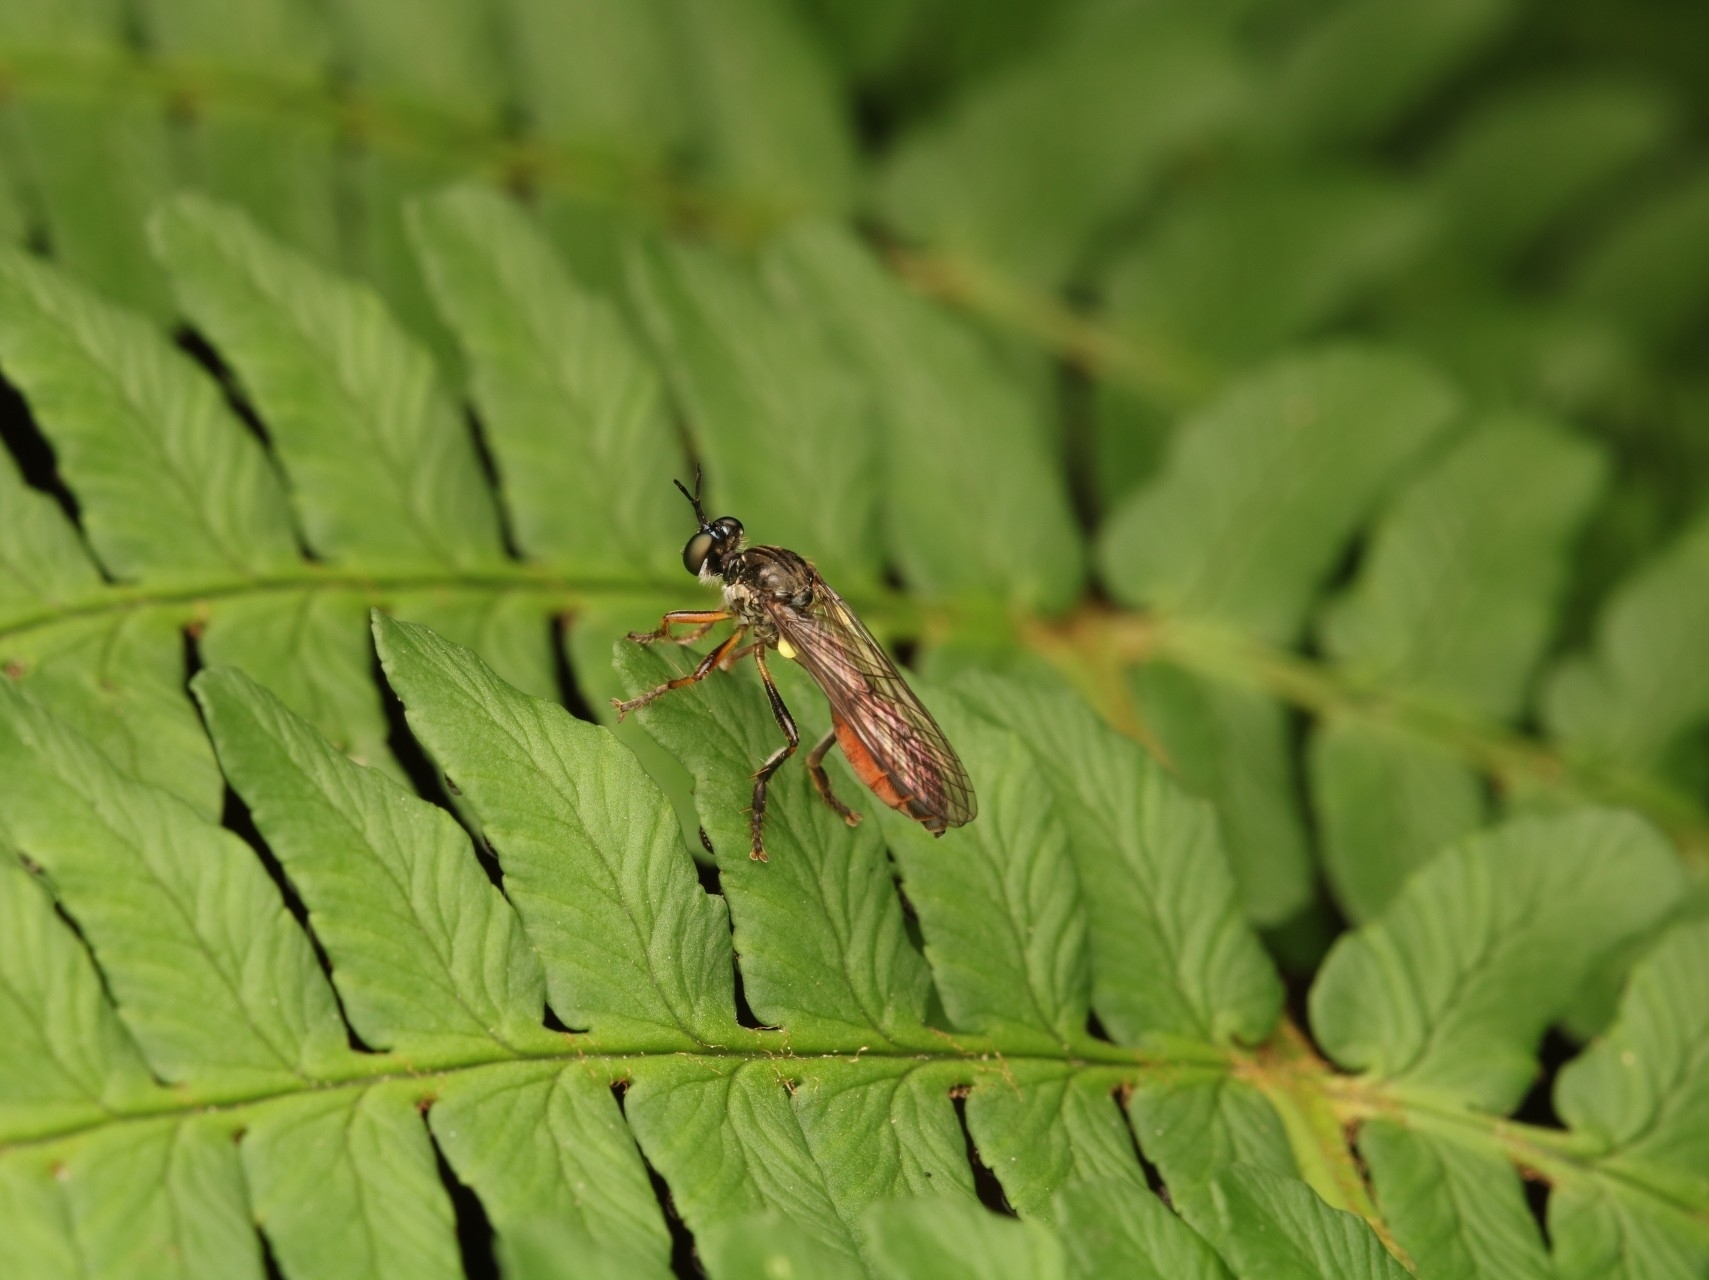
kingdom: Animalia
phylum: Arthropoda
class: Insecta
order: Diptera
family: Asilidae
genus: Dioctria
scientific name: Dioctria hyalipennis
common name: Stripe-legged robberfly
